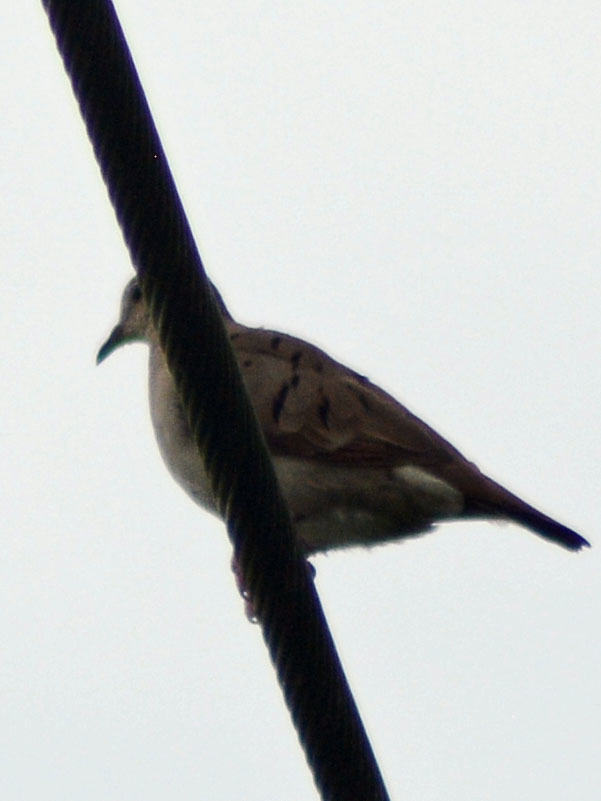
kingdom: Animalia
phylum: Chordata
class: Aves
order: Columbiformes
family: Columbidae
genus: Zenaida
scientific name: Zenaida macroura
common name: Mourning dove
